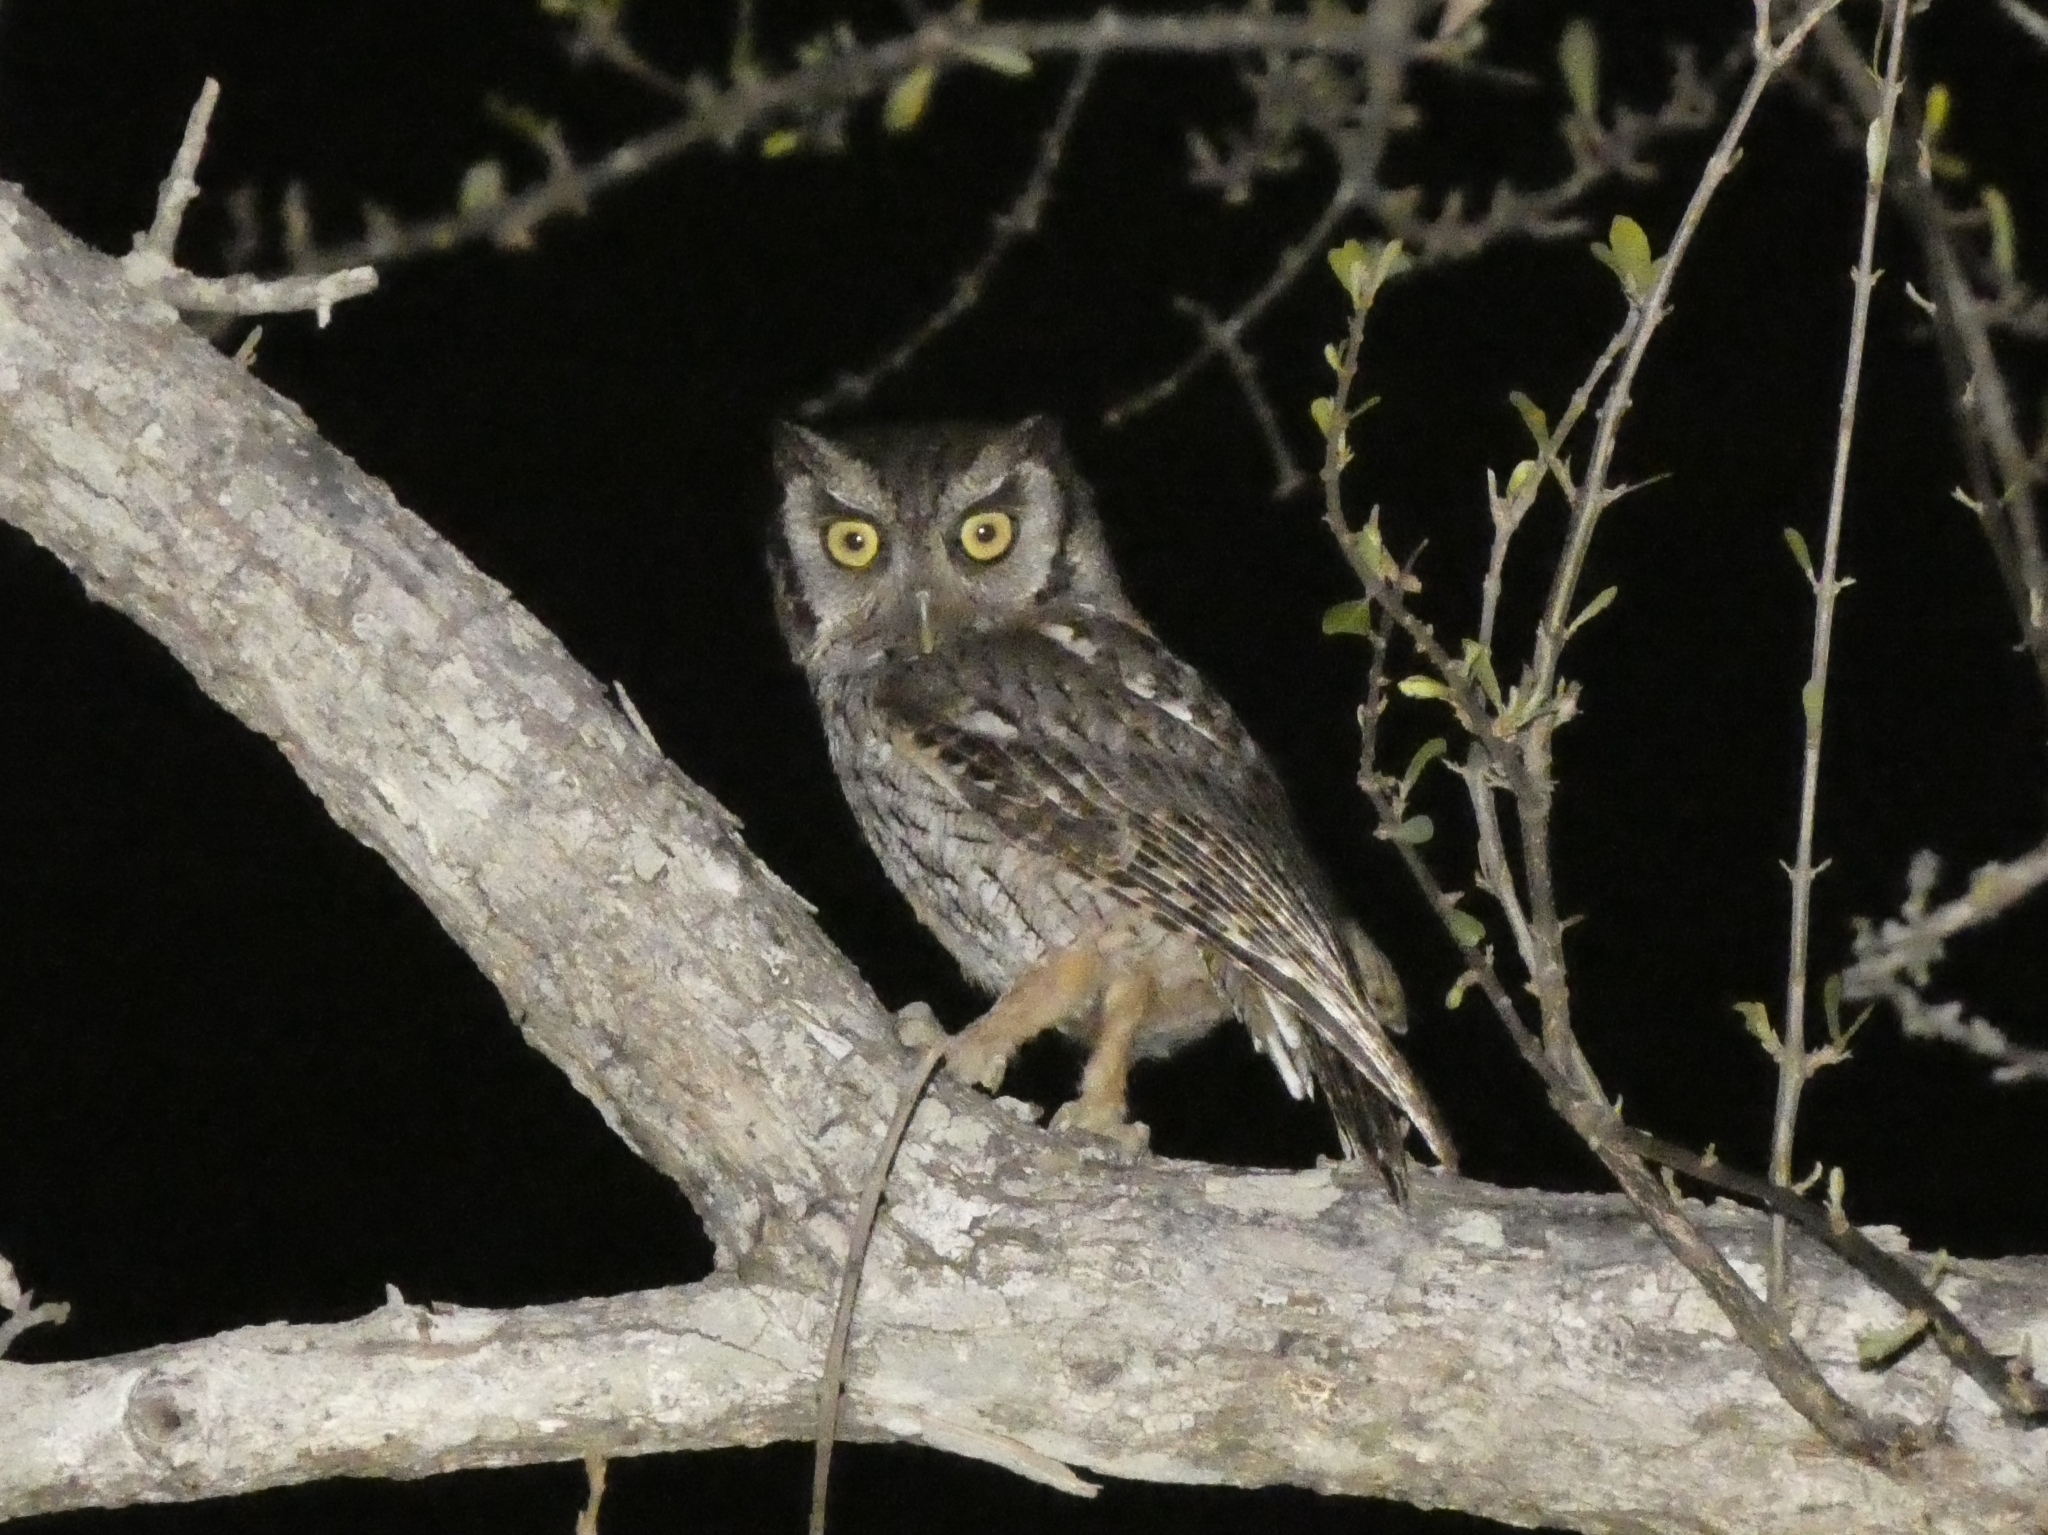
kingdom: Animalia
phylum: Chordata
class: Aves
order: Strigiformes
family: Strigidae
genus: Megascops
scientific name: Megascops choliba
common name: Tropical screech-owl
